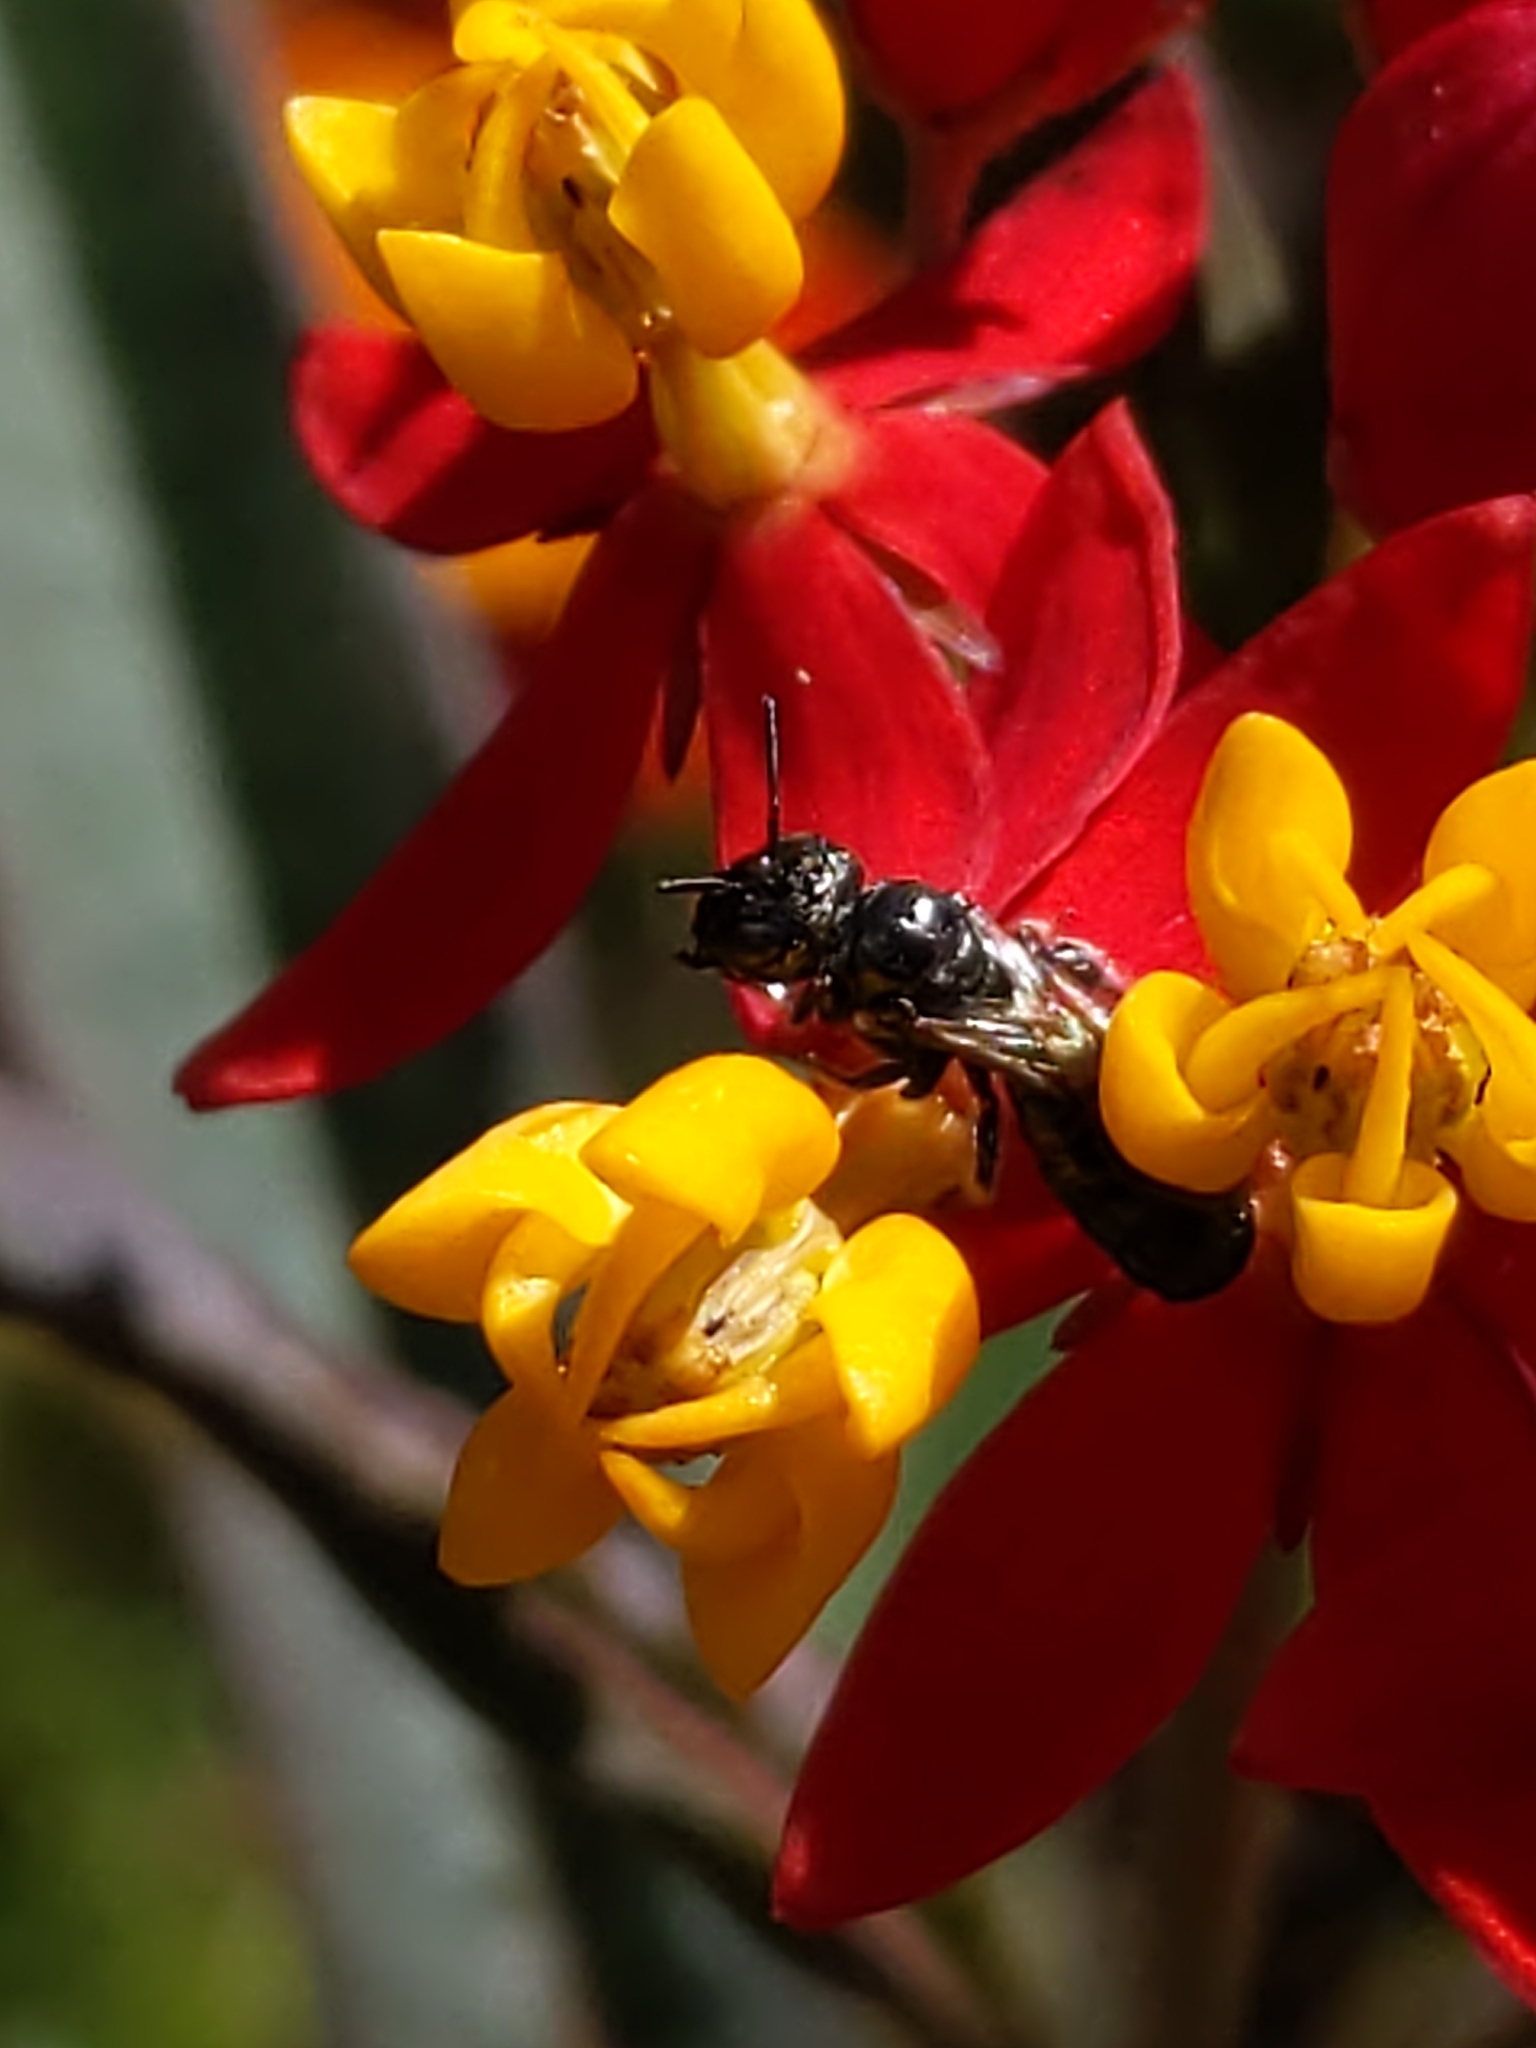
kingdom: Animalia
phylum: Arthropoda
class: Insecta
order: Hymenoptera
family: Apidae
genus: Zadontomerus
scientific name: Zadontomerus
